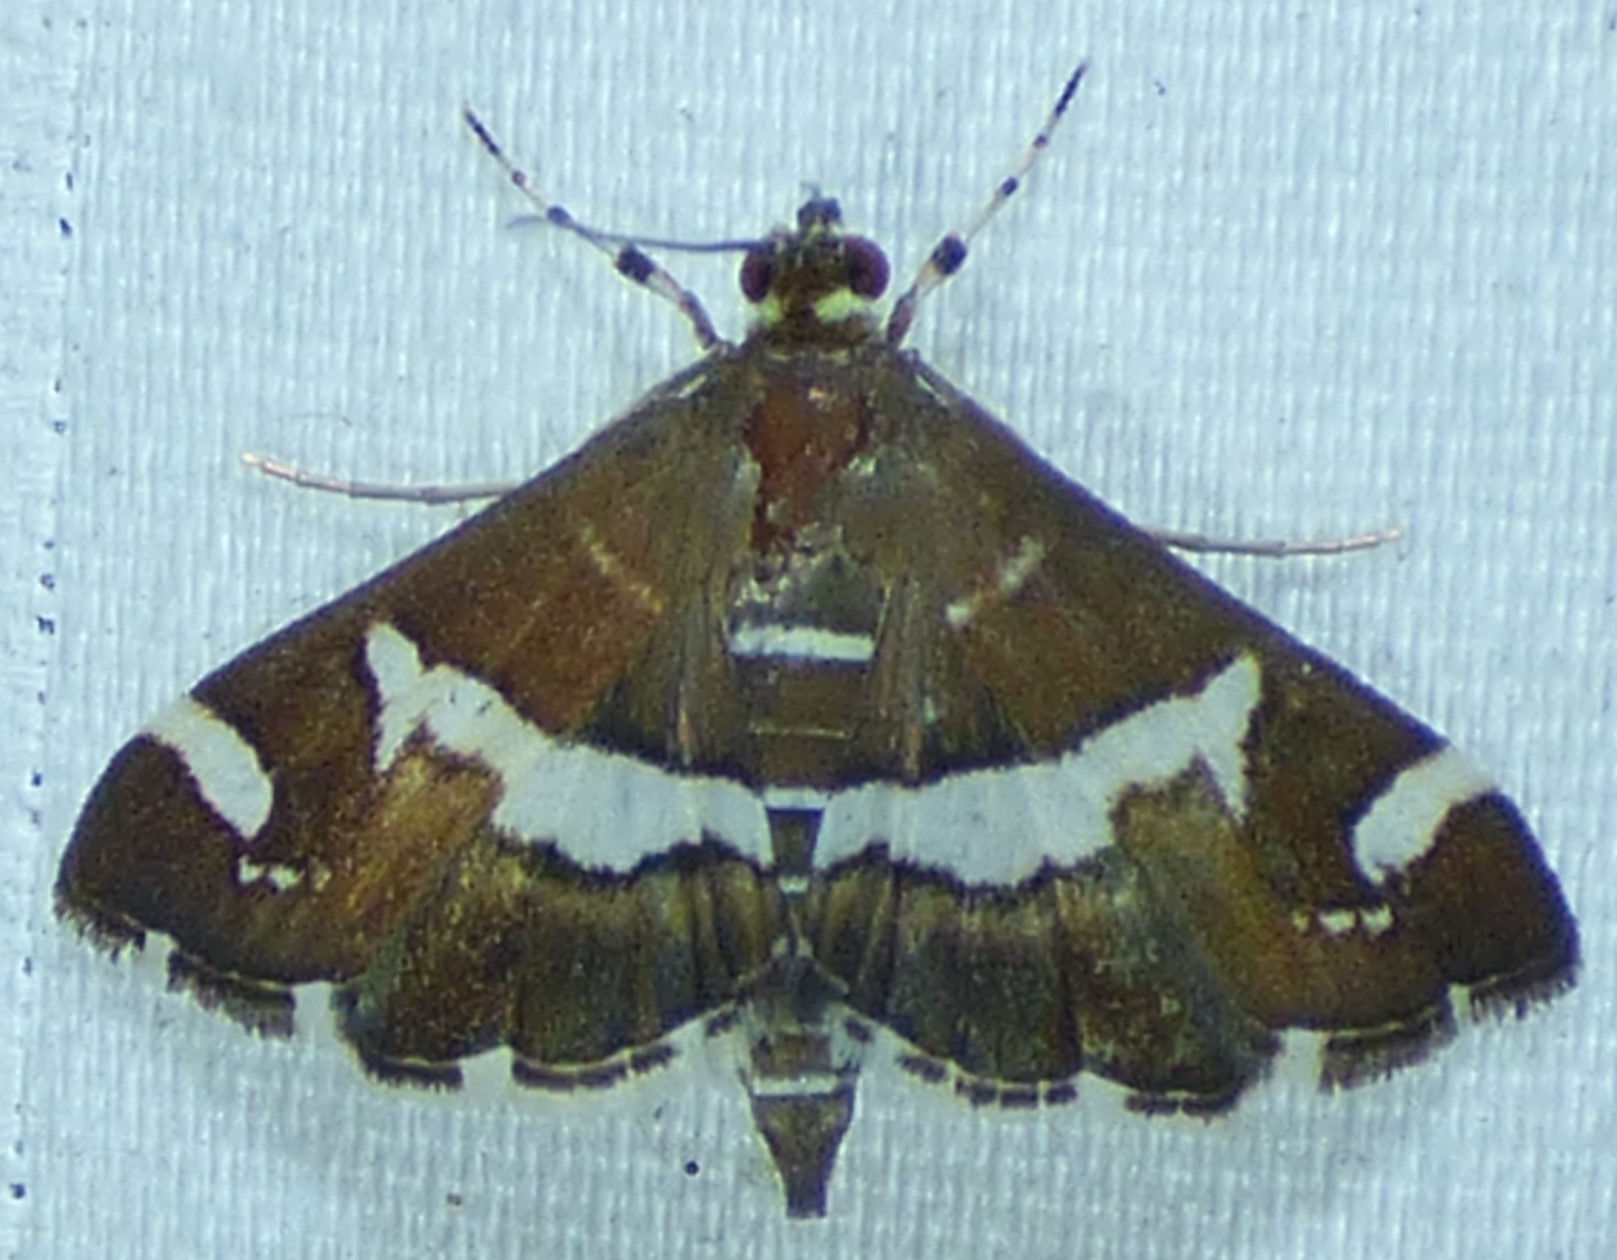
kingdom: Animalia
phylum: Arthropoda
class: Insecta
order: Lepidoptera
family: Crambidae
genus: Spoladea
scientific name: Spoladea recurvalis
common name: Beet webworm moth
